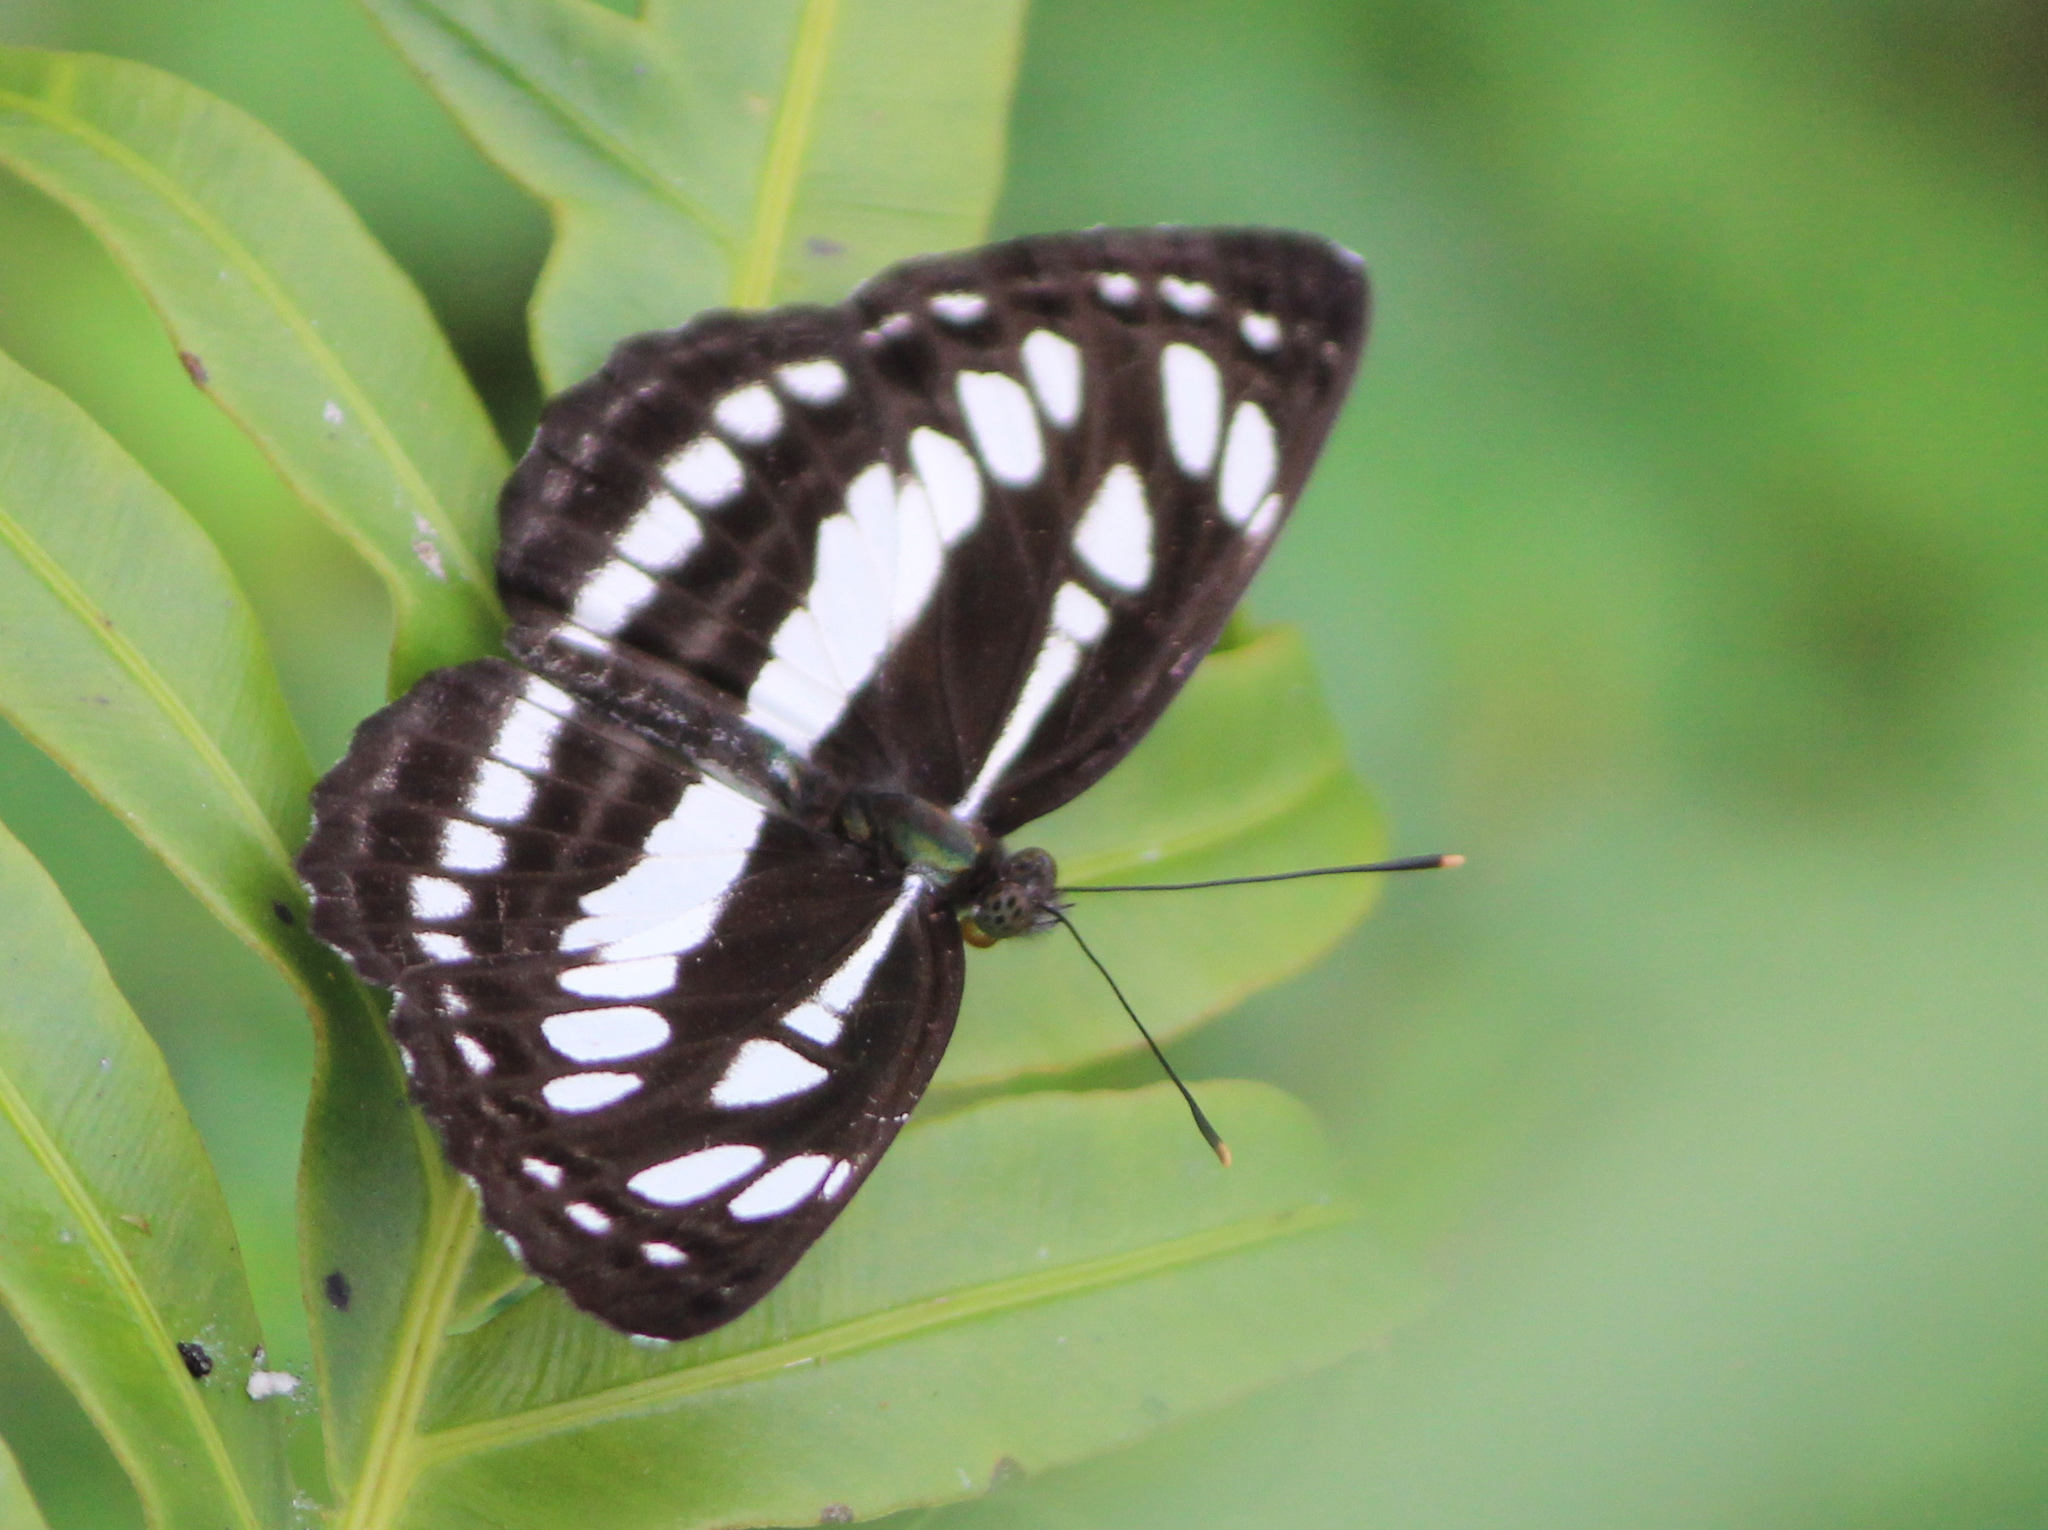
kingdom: Animalia
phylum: Arthropoda
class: Insecta
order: Lepidoptera
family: Nymphalidae
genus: Neptis
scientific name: Neptis hylas
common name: Common sailer
